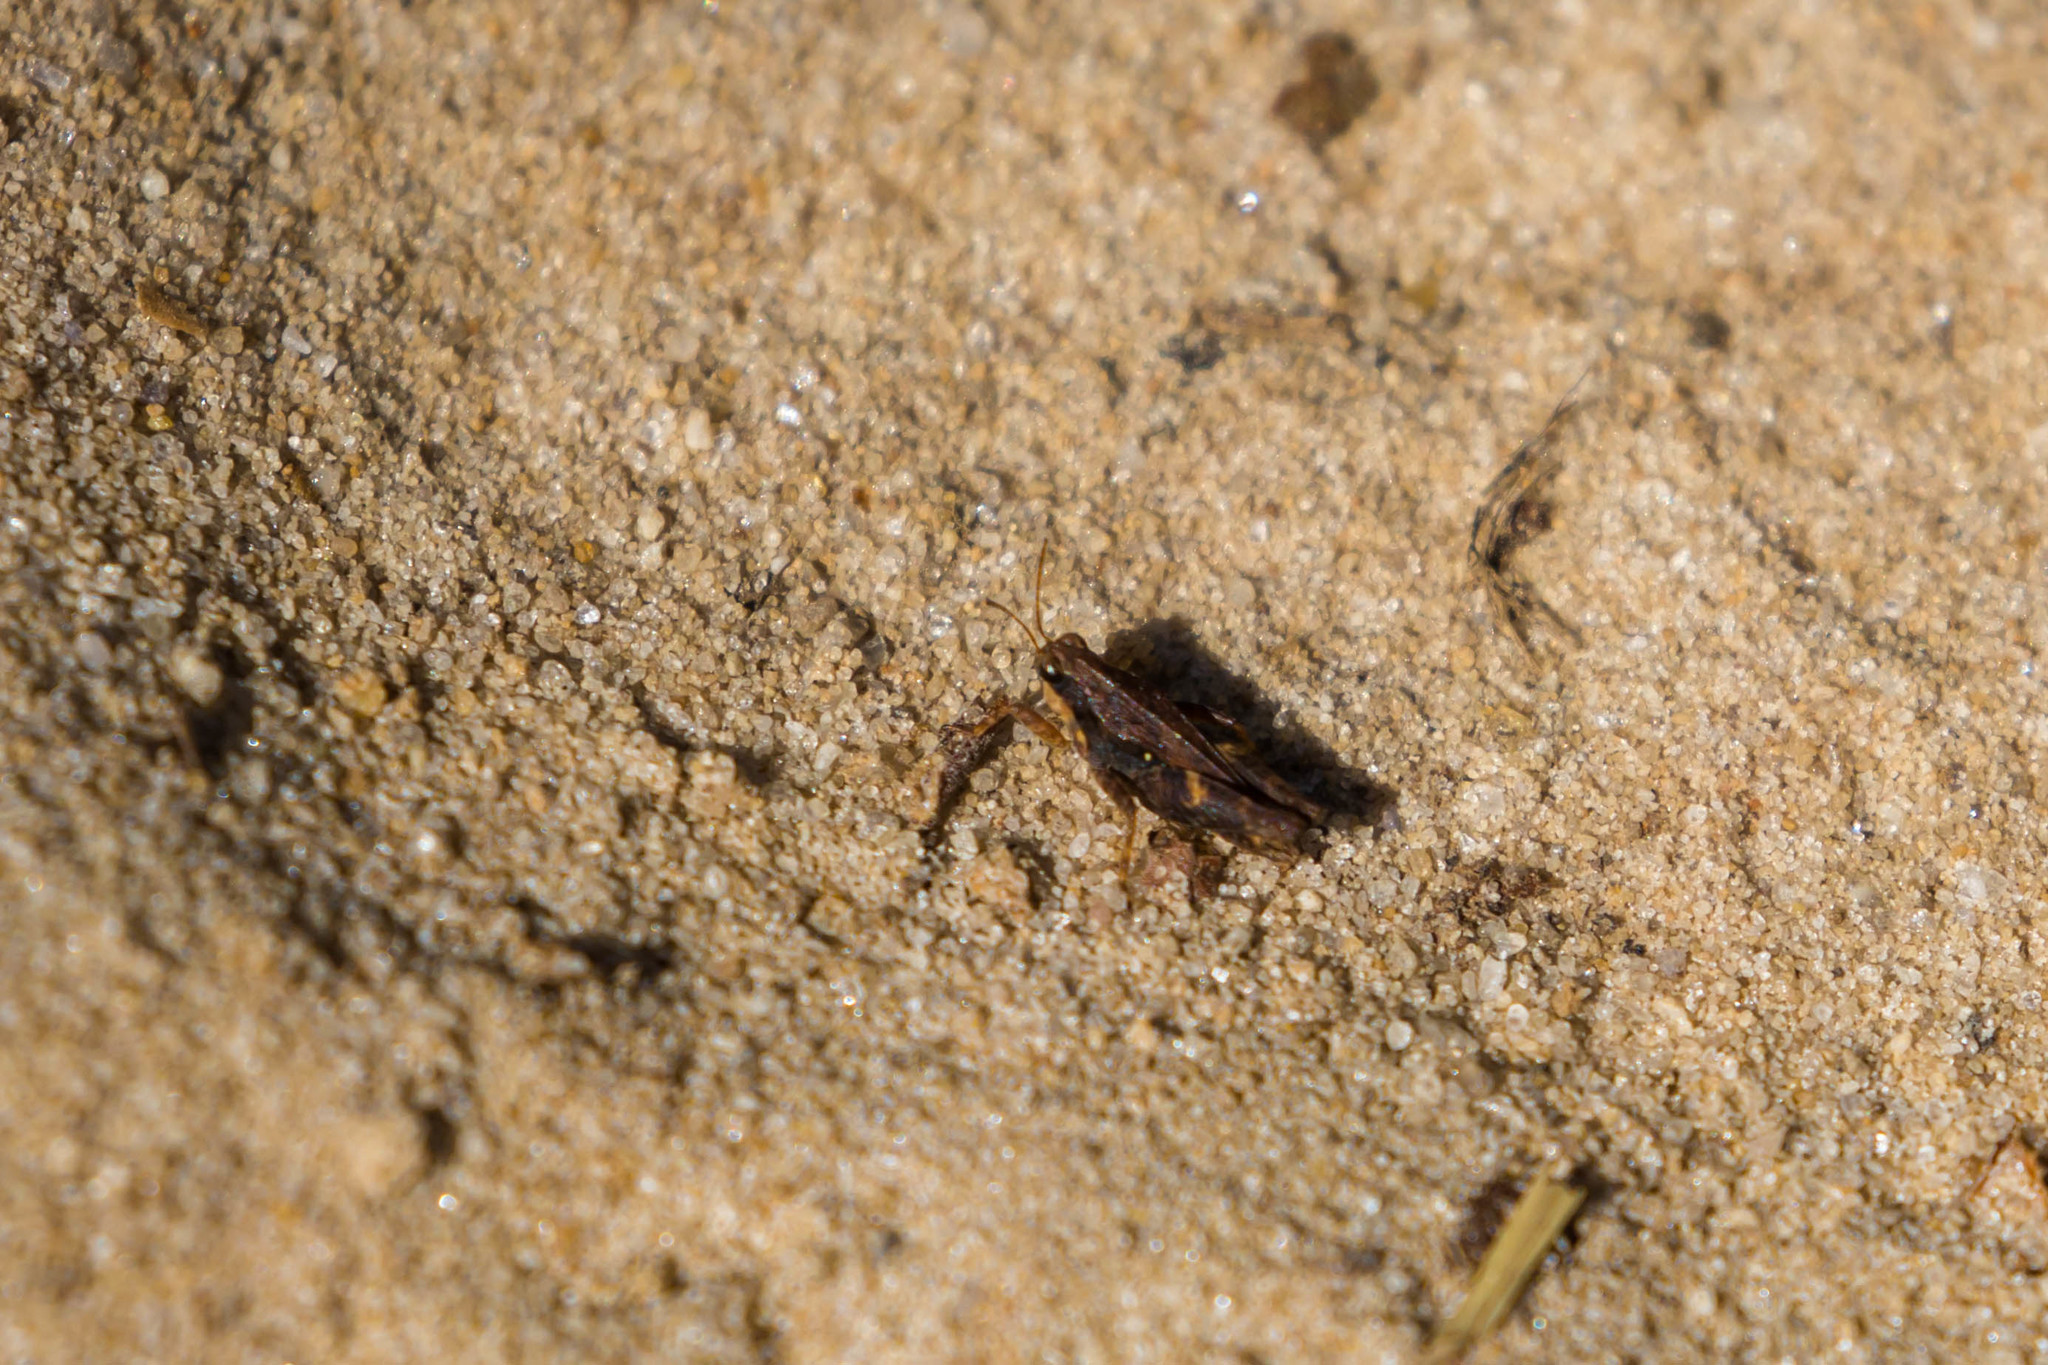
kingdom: Animalia
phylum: Arthropoda
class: Insecta
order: Orthoptera
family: Tetrigidae
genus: Tettigidea
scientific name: Tettigidea laterale
